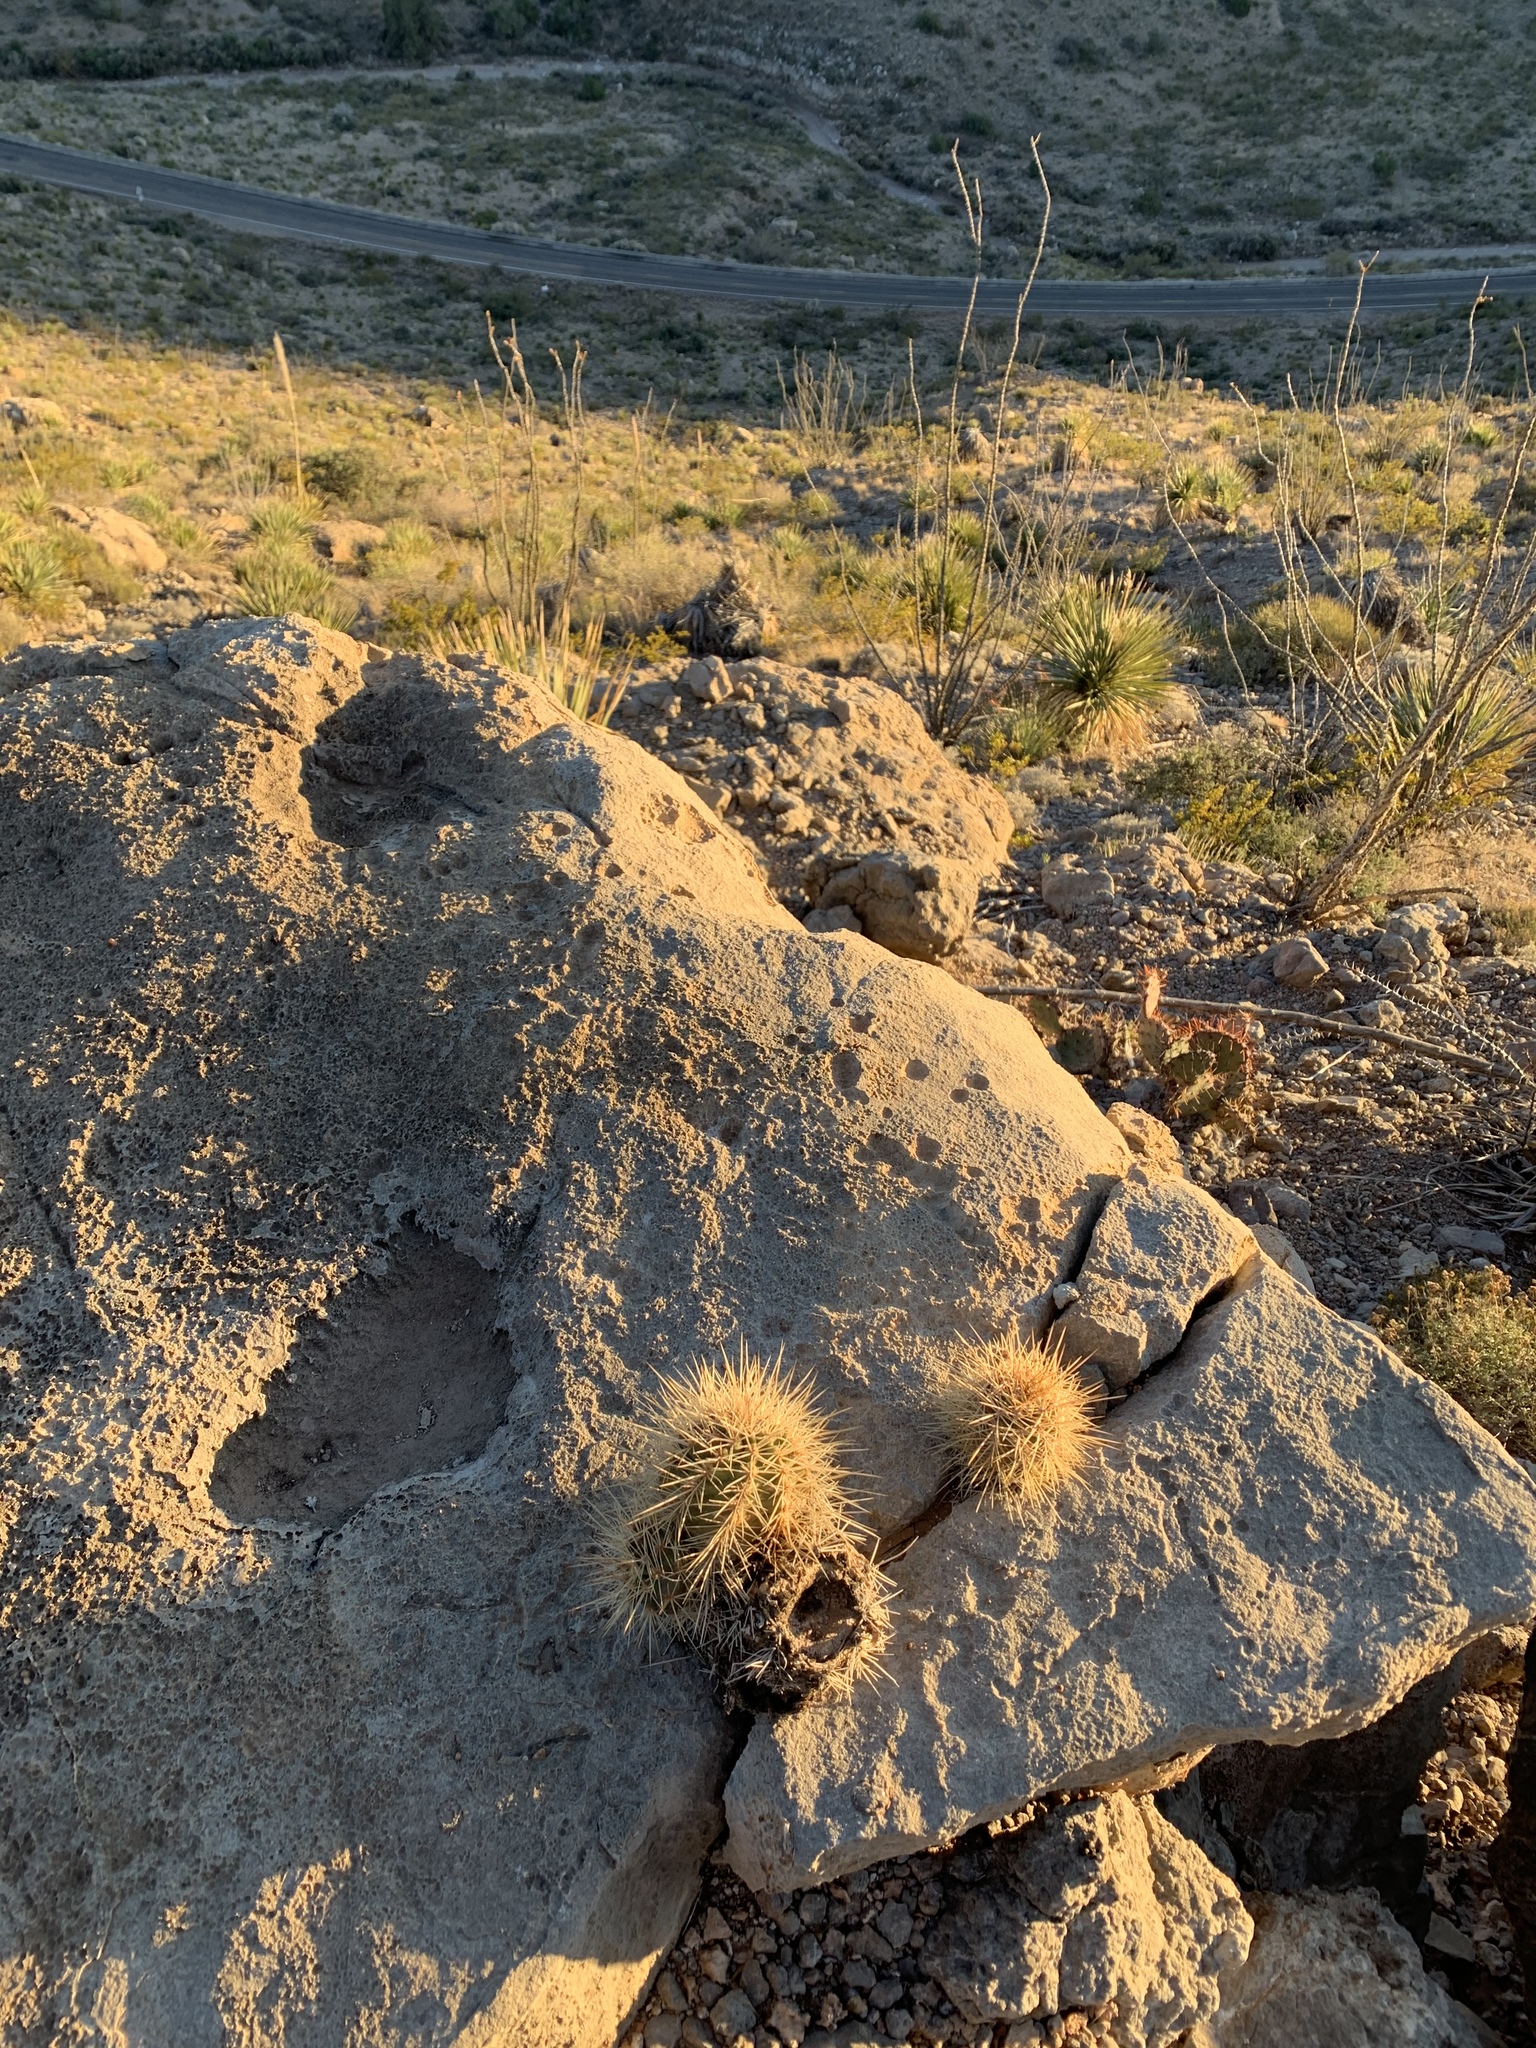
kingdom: Plantae
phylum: Tracheophyta
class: Magnoliopsida
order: Caryophyllales
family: Cactaceae
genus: Echinocereus
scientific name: Echinocereus coccineus
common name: Scarlet hedgehog cactus
